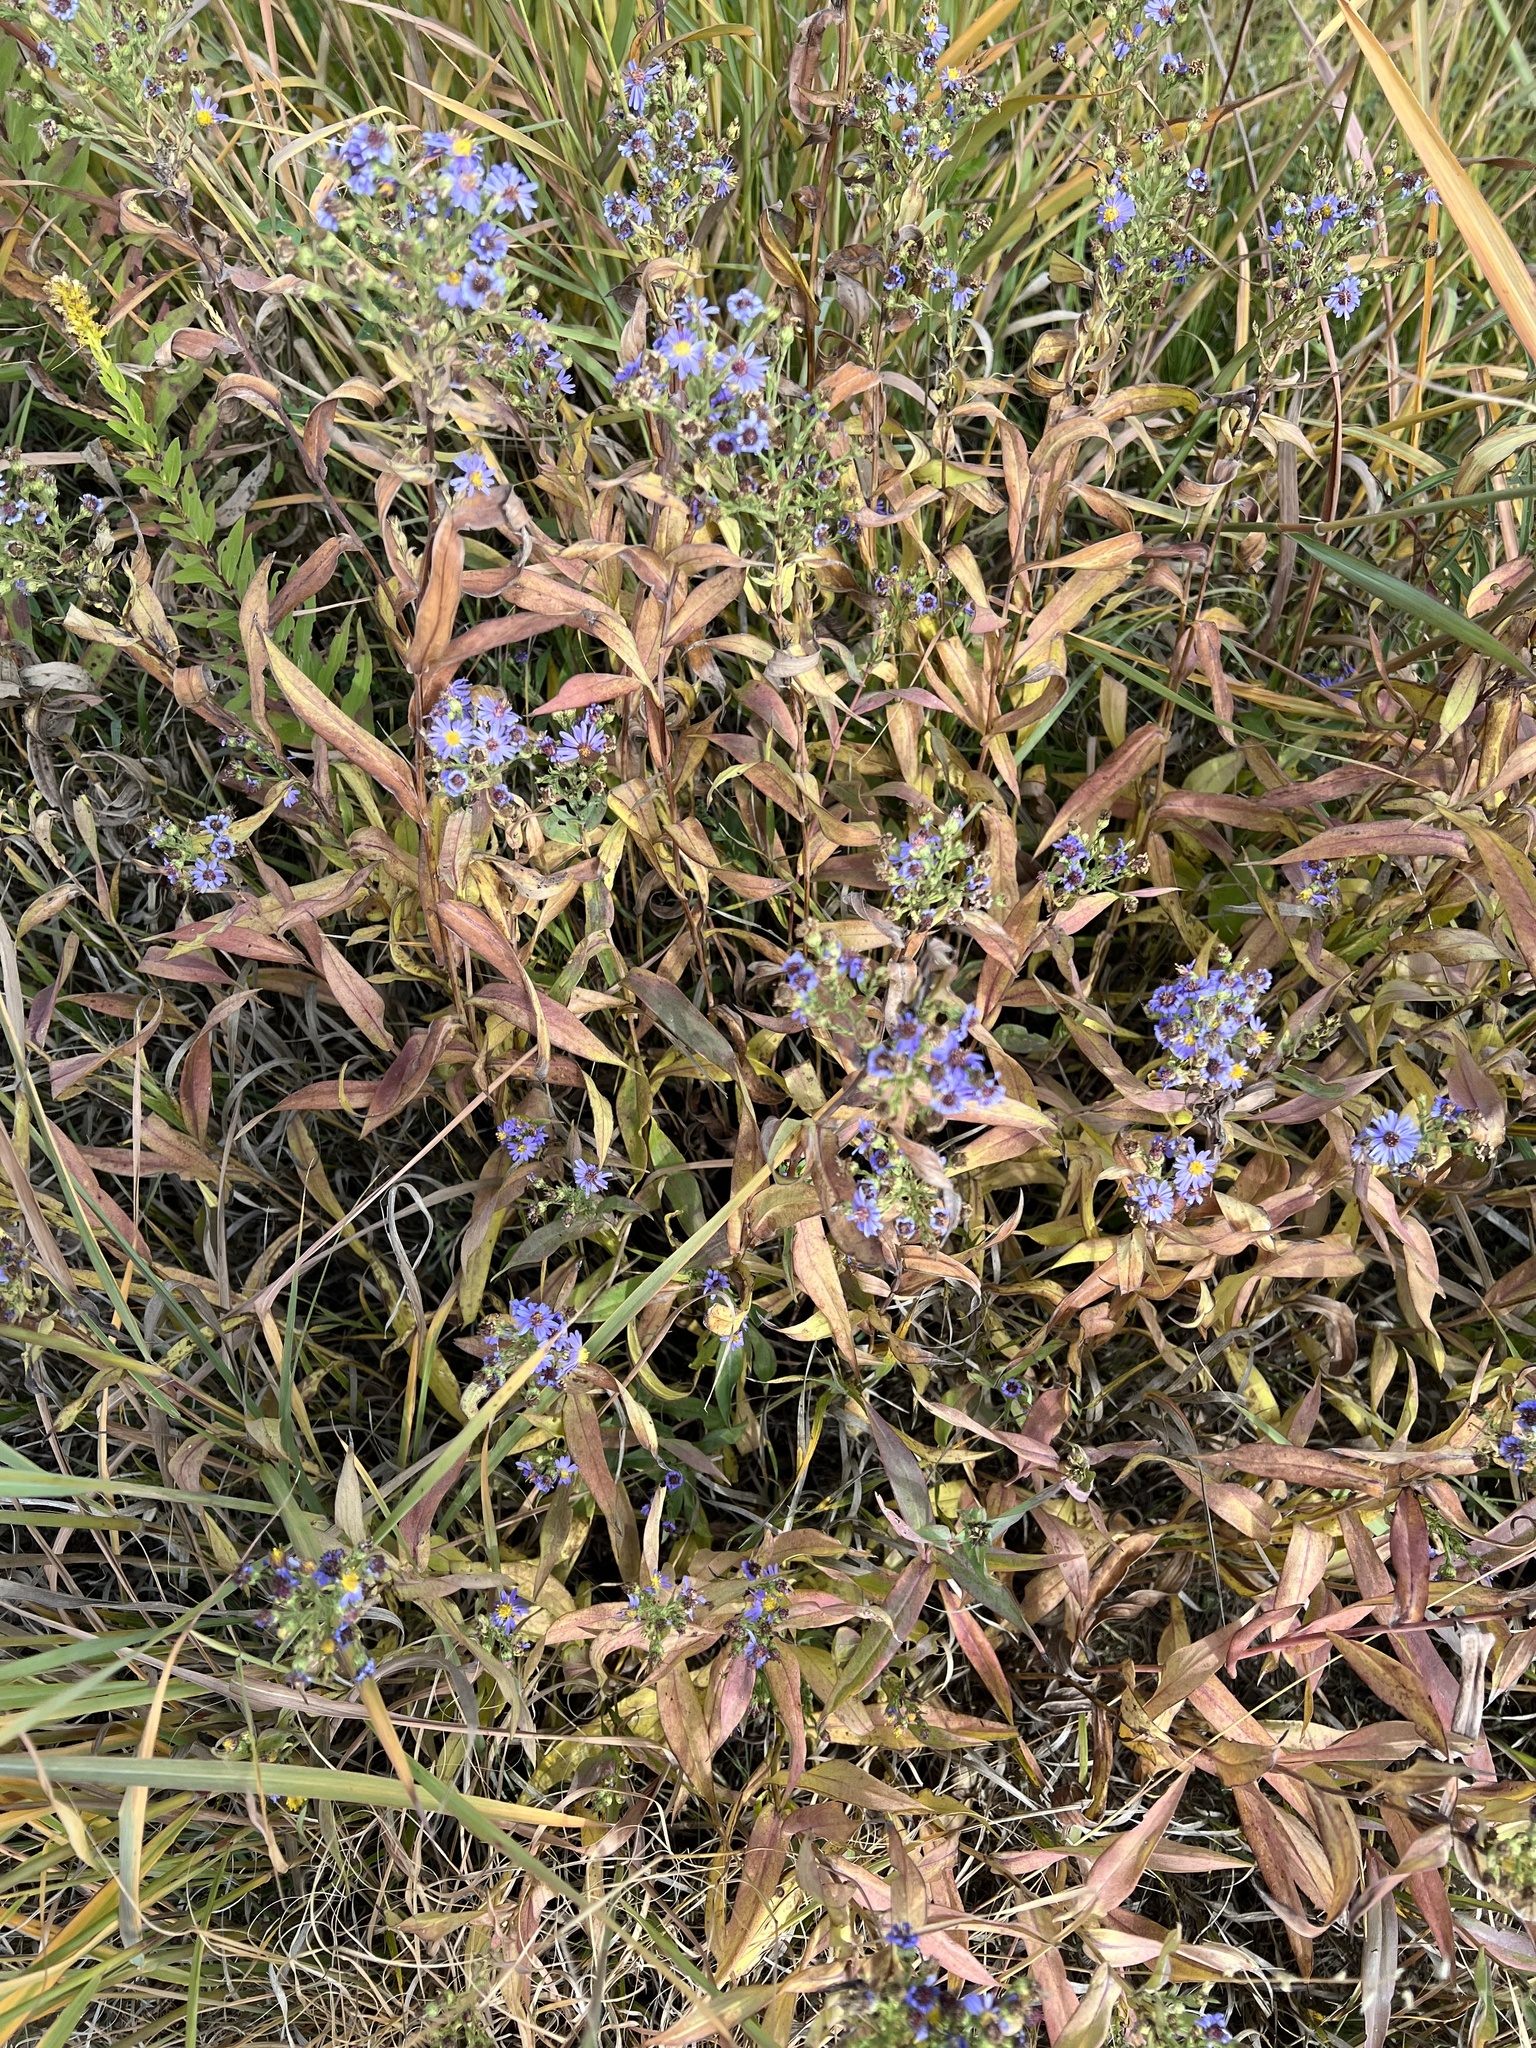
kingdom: Plantae
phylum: Tracheophyta
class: Magnoliopsida
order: Asterales
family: Asteraceae
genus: Symphyotrichum
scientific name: Symphyotrichum laeve
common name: Glaucous aster
